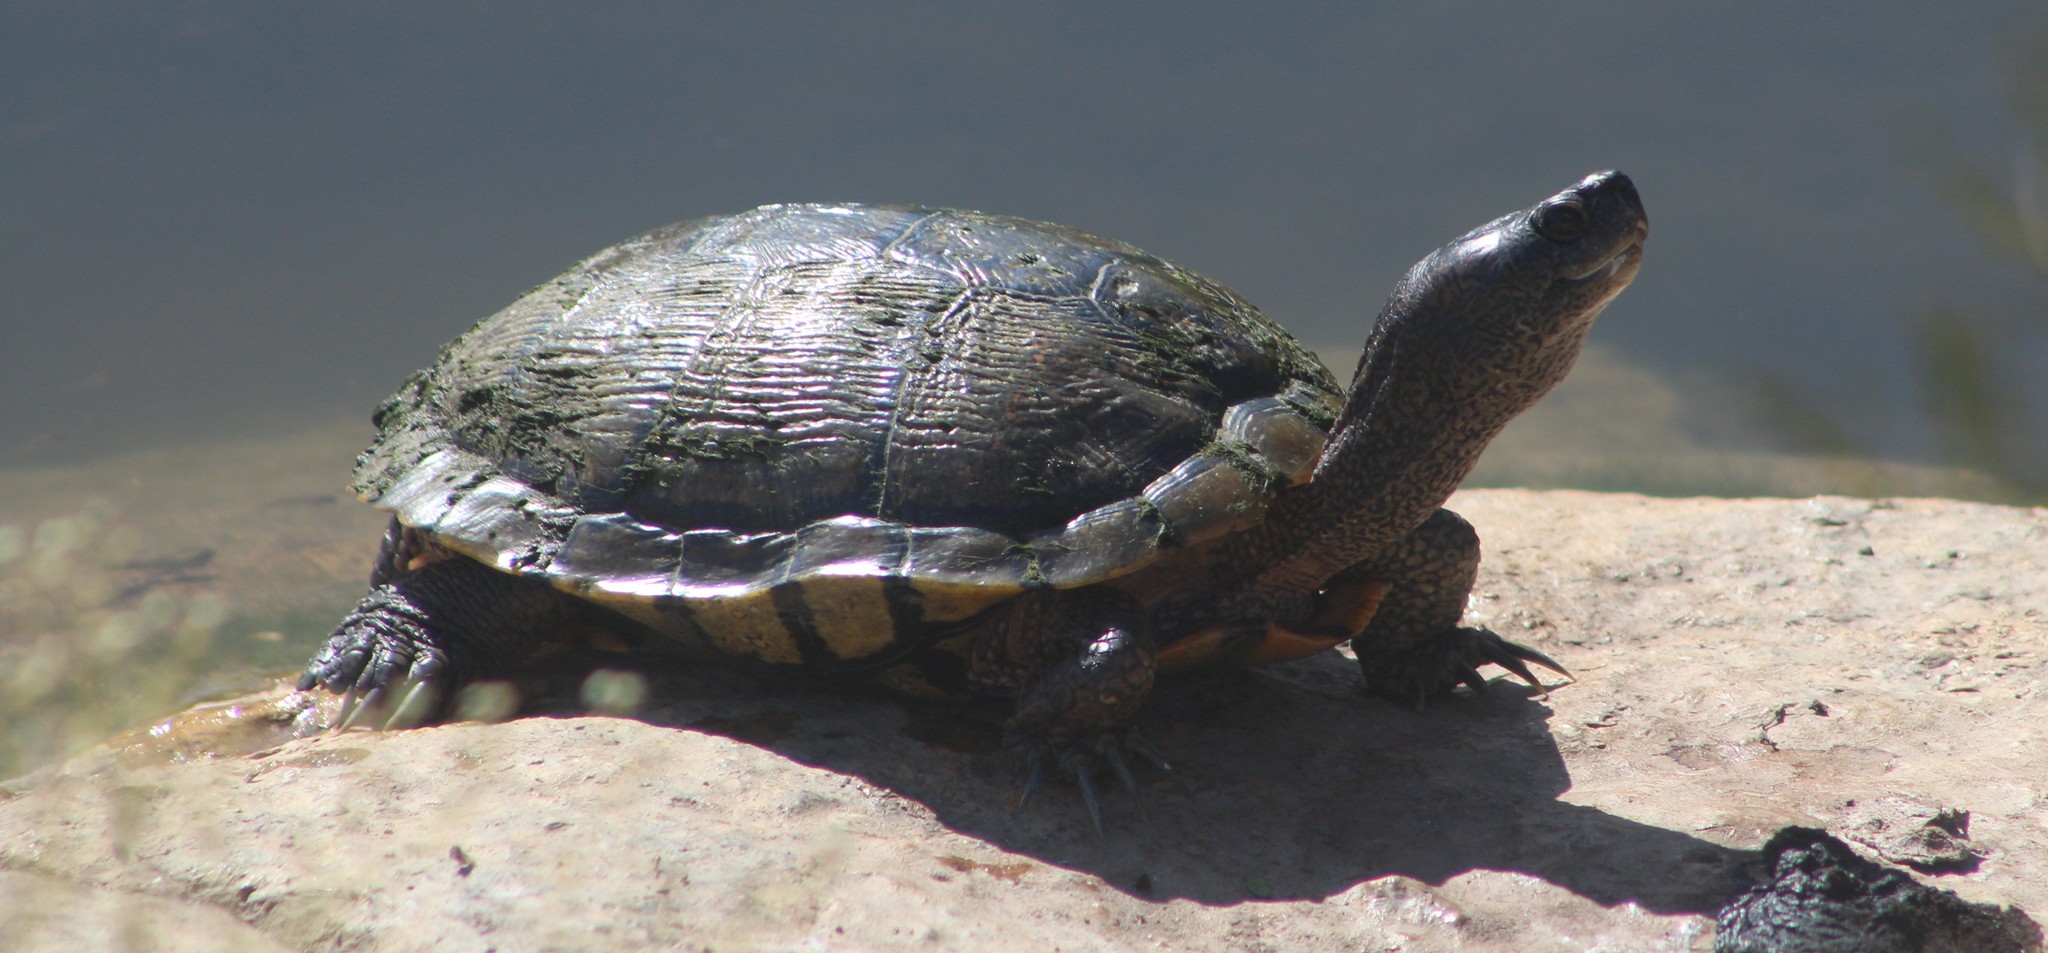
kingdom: Animalia
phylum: Chordata
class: Testudines
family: Emydidae
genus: Trachemys
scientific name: Trachemys scripta
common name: Slider
